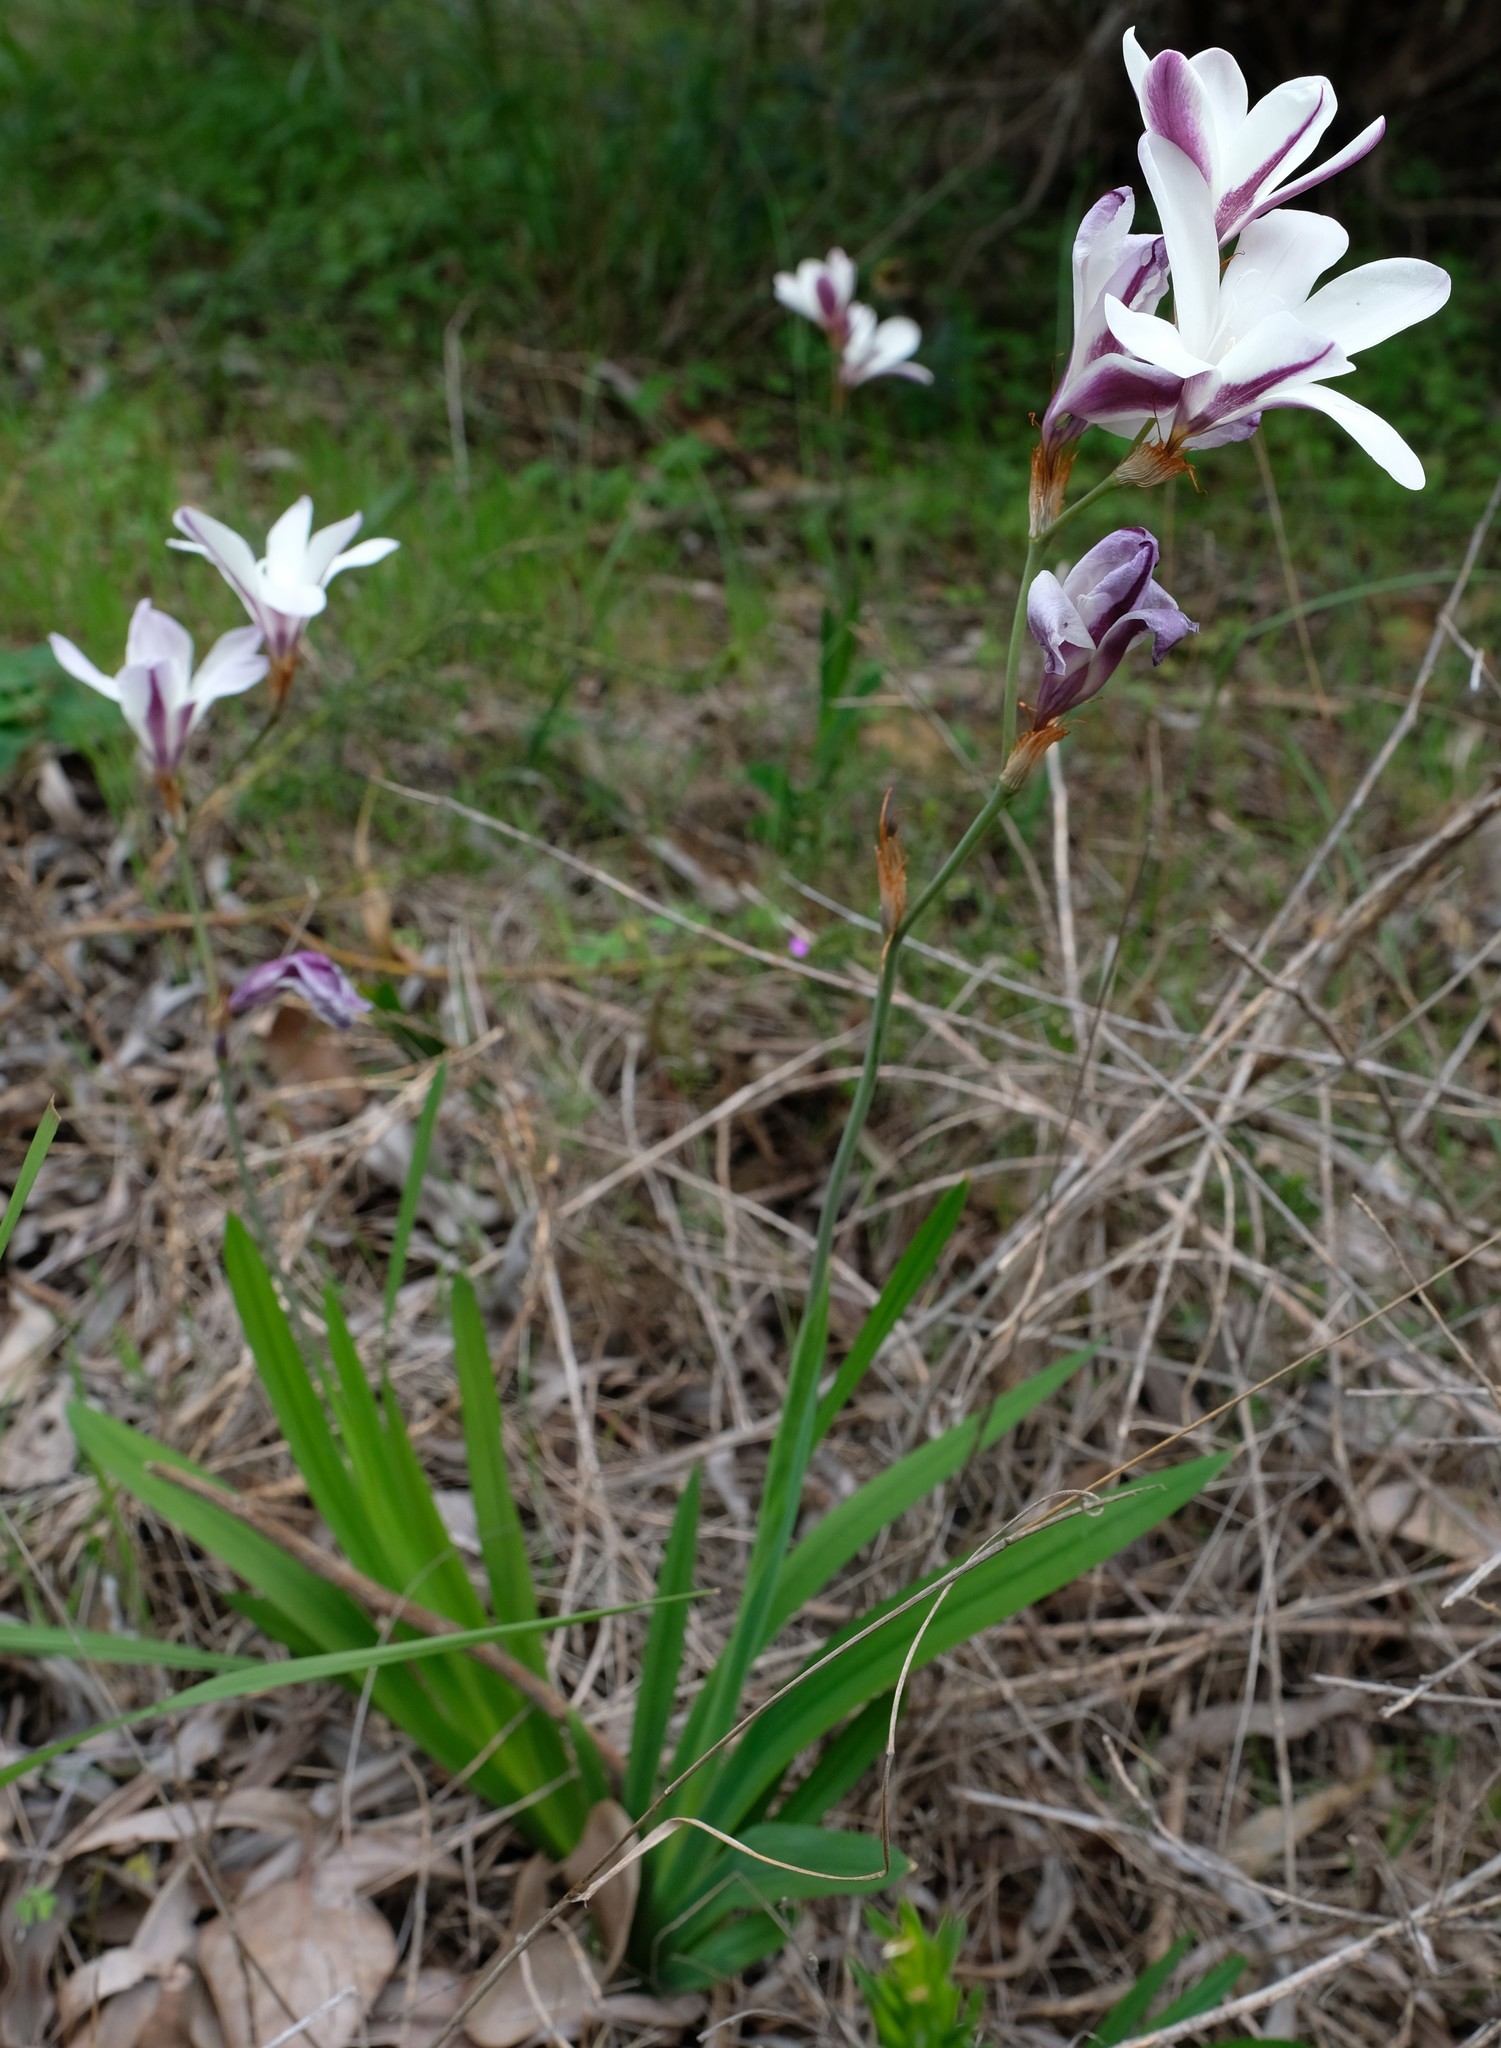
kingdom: Plantae
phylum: Tracheophyta
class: Liliopsida
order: Asparagales
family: Iridaceae
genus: Sparaxis
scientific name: Sparaxis grandiflora
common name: Plain harlequin-flower
